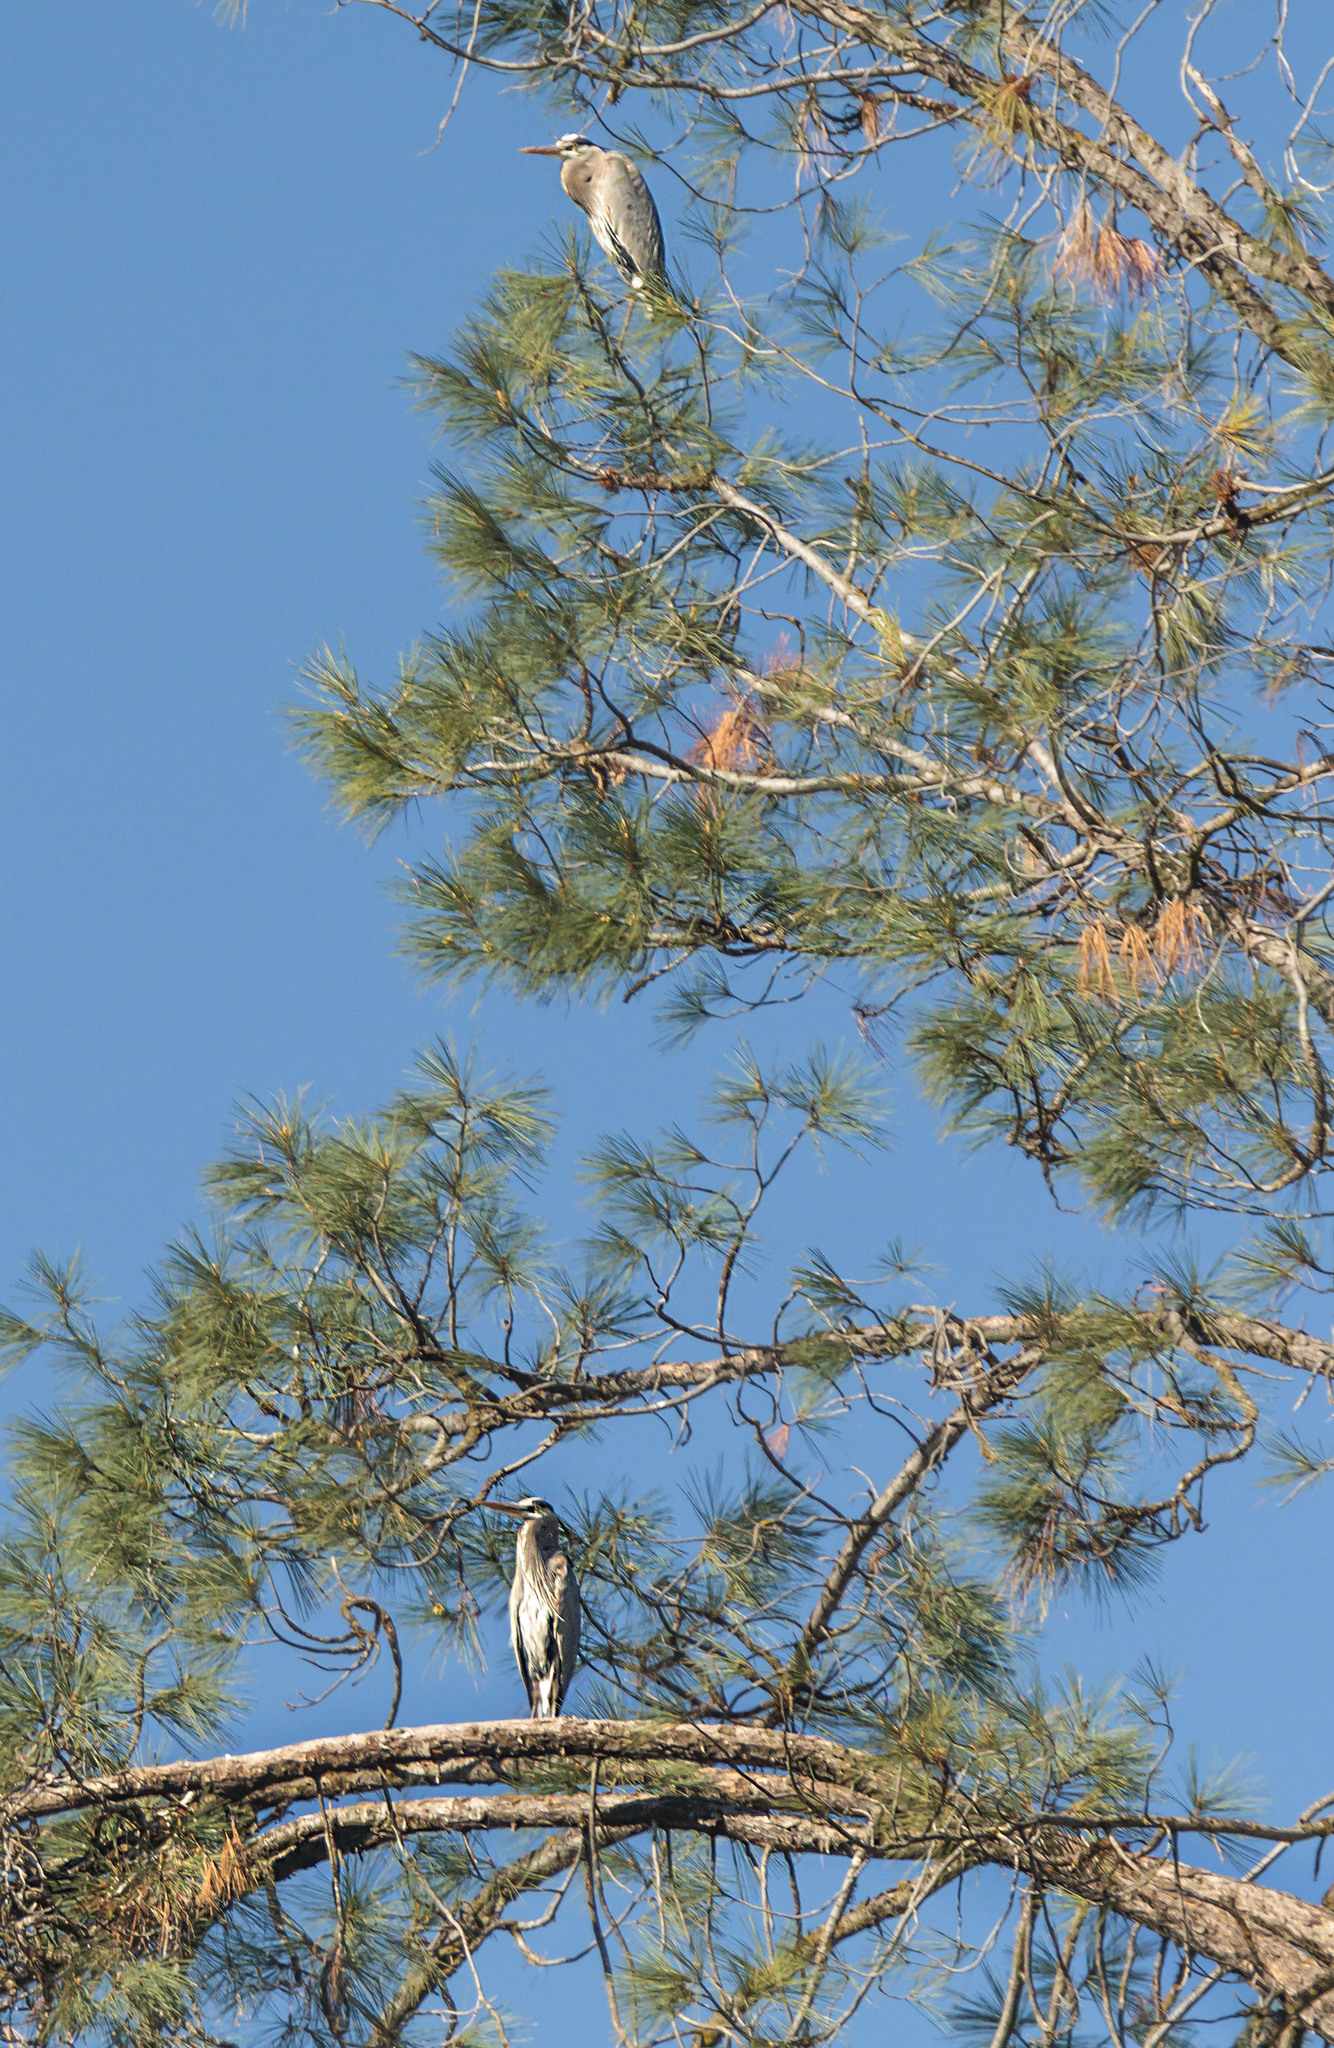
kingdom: Animalia
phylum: Chordata
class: Aves
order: Pelecaniformes
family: Ardeidae
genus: Ardea
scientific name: Ardea herodias
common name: Great blue heron
